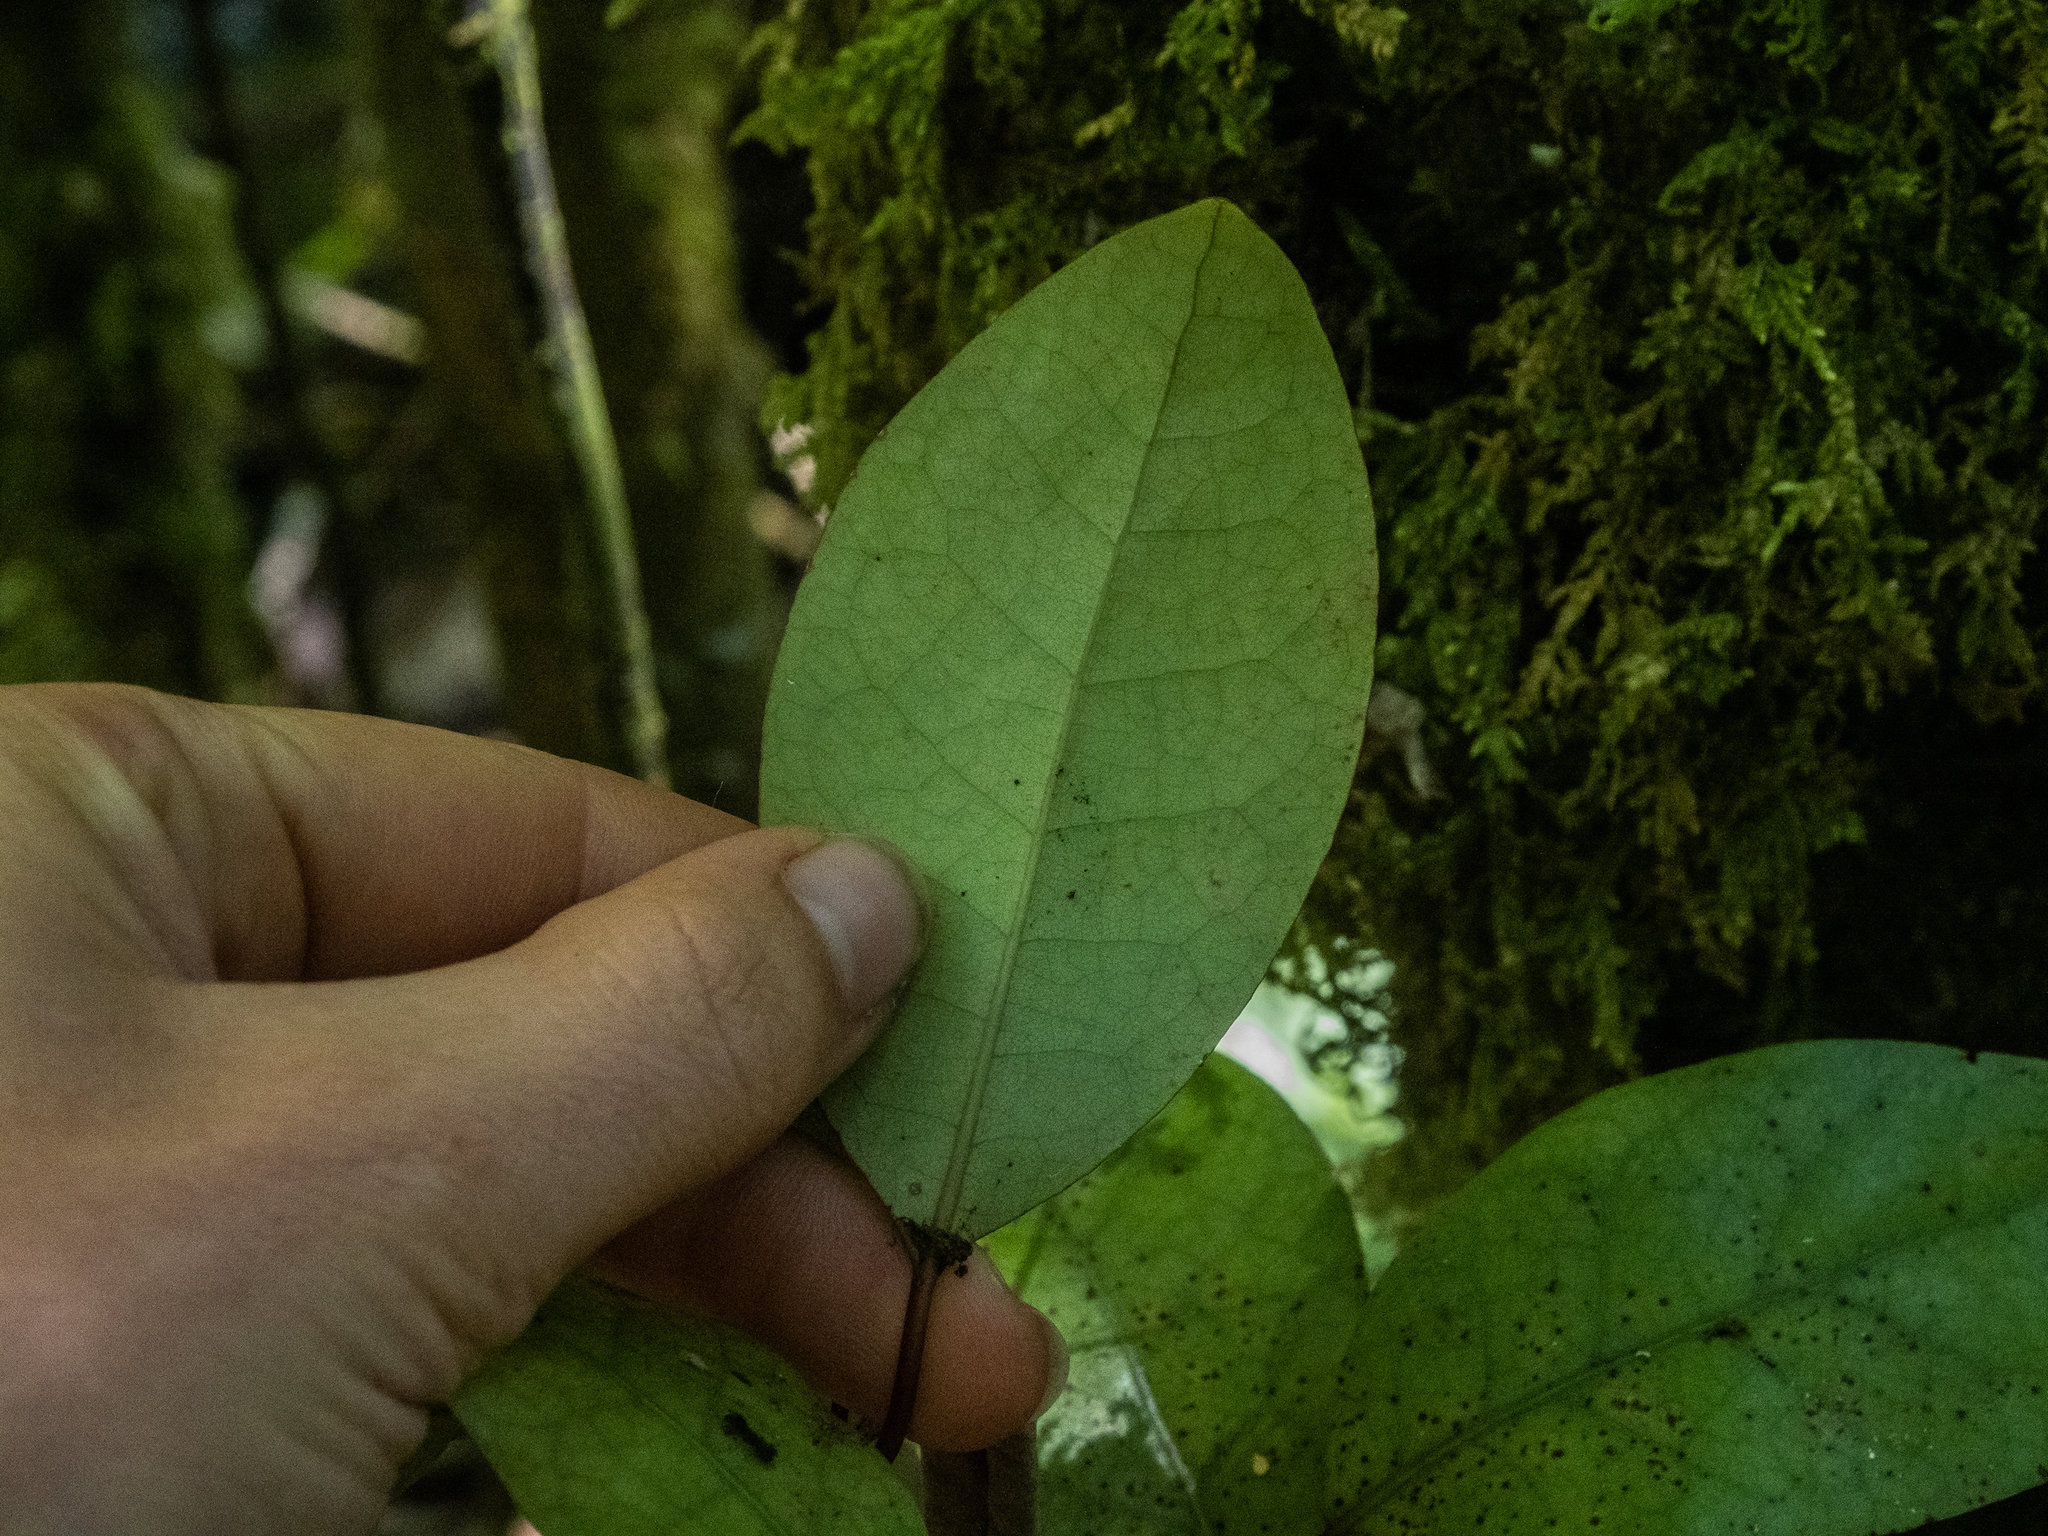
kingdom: Plantae
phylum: Tracheophyta
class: Magnoliopsida
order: Laurales
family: Lauraceae
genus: Litsea
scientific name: Litsea calicaris
